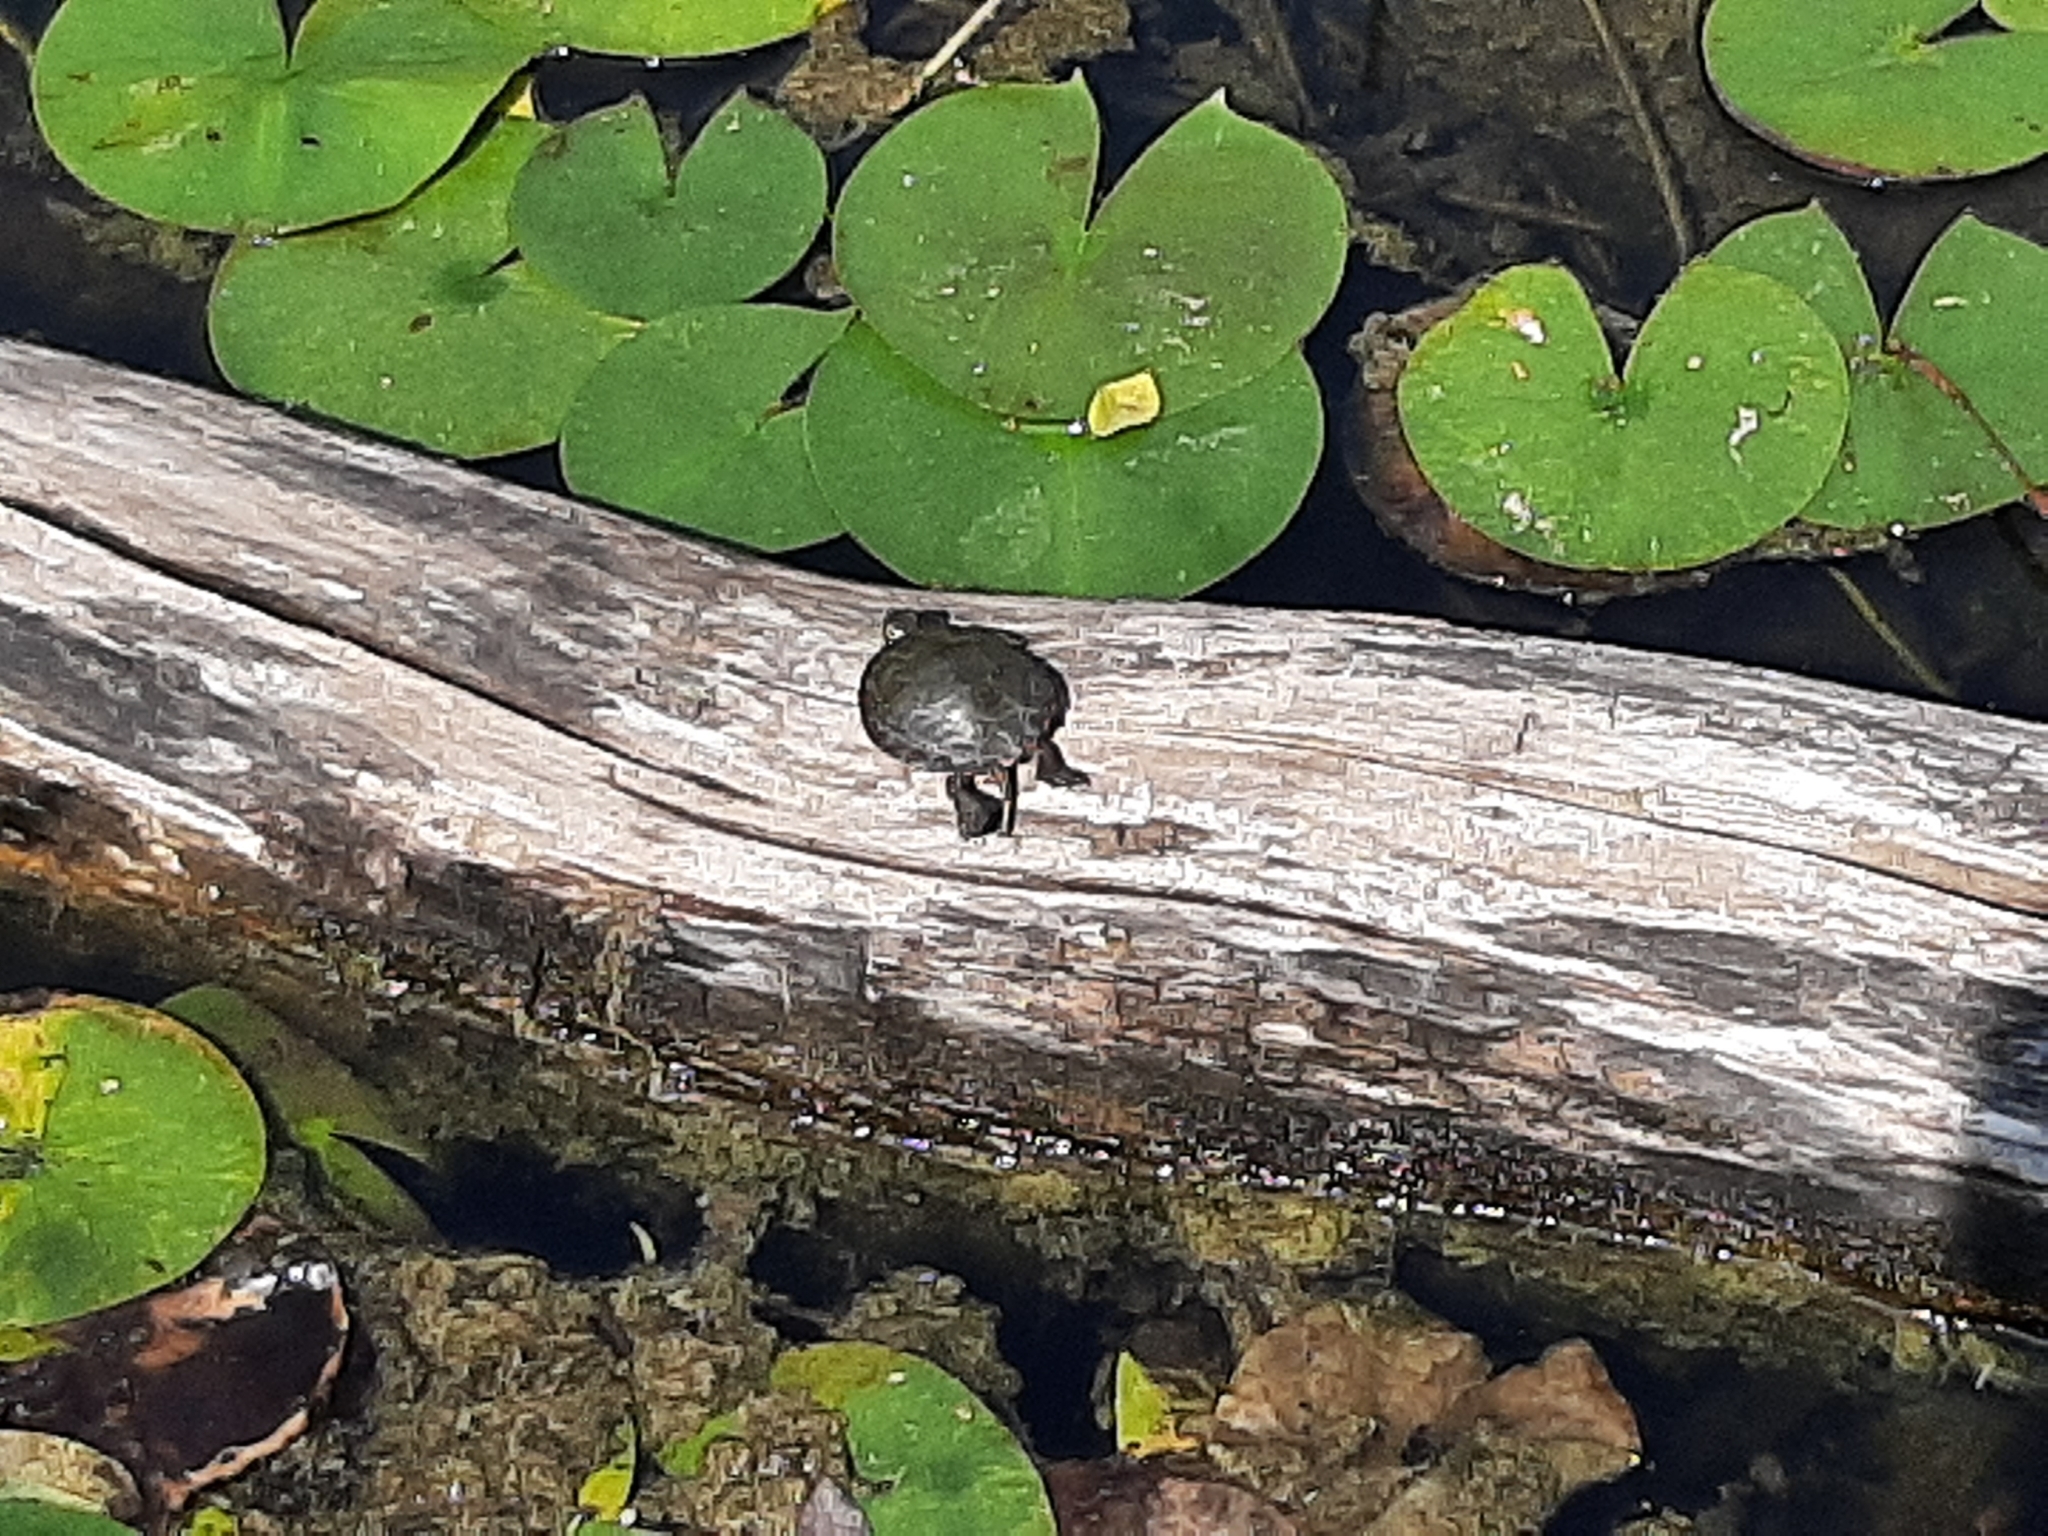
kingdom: Animalia
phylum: Chordata
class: Testudines
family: Emydidae
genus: Chrysemys
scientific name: Chrysemys picta
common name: Painted turtle
